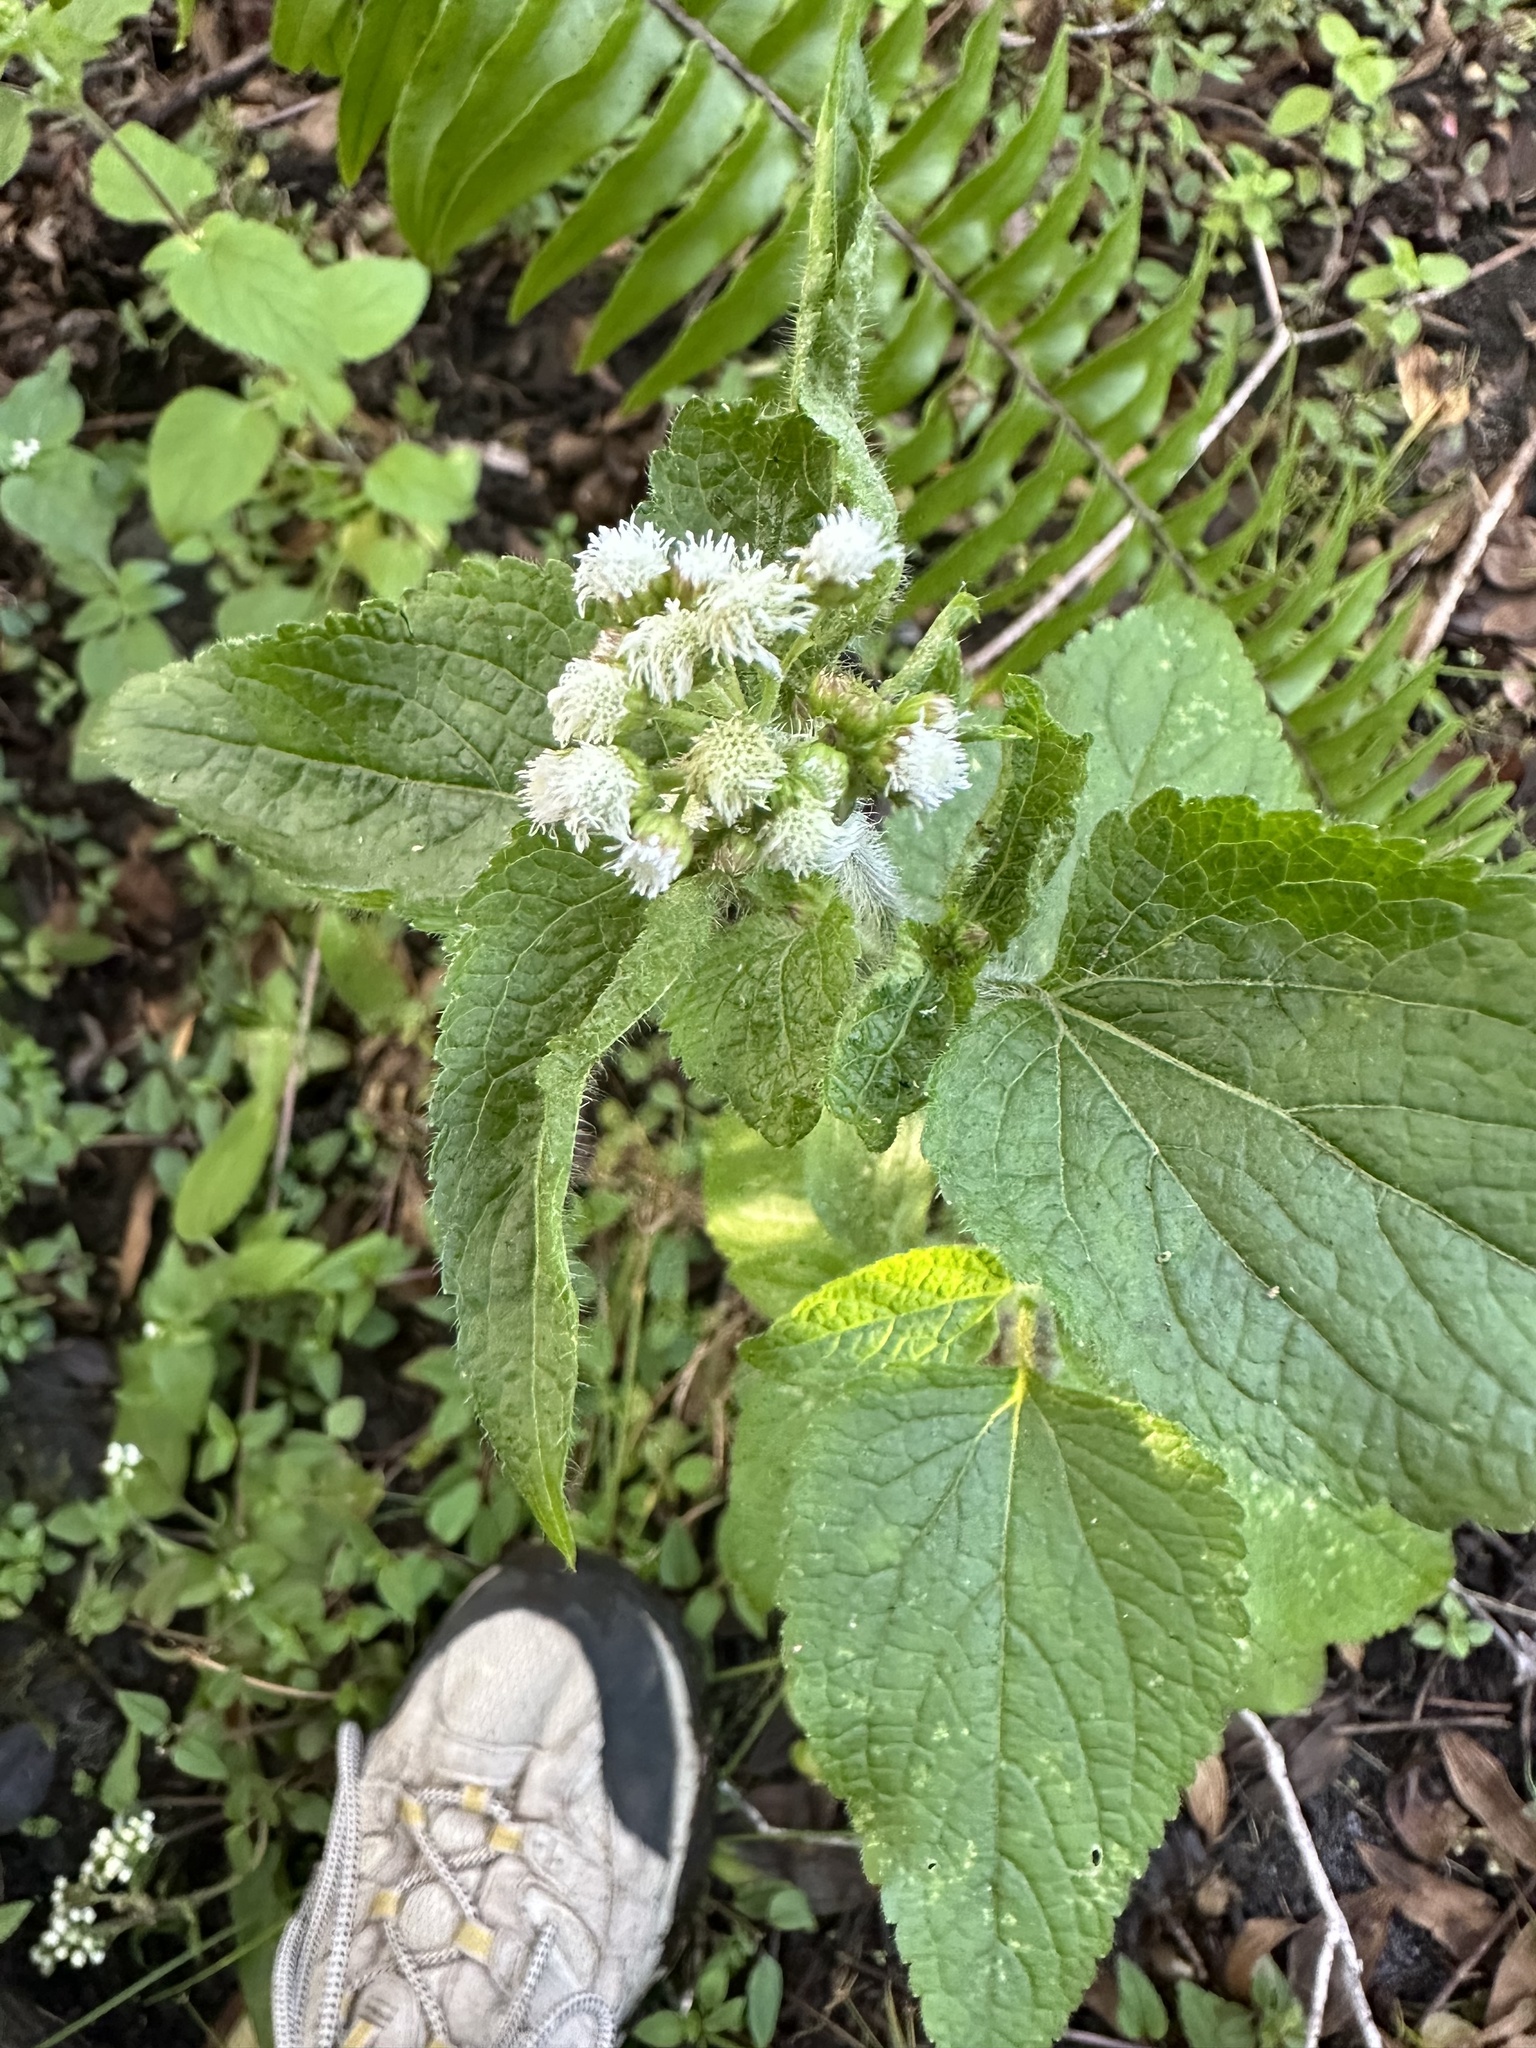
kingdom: Plantae
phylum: Tracheophyta
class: Magnoliopsida
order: Asterales
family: Asteraceae
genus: Ageratum
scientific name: Ageratum conyzoides
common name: Tropical whiteweed
